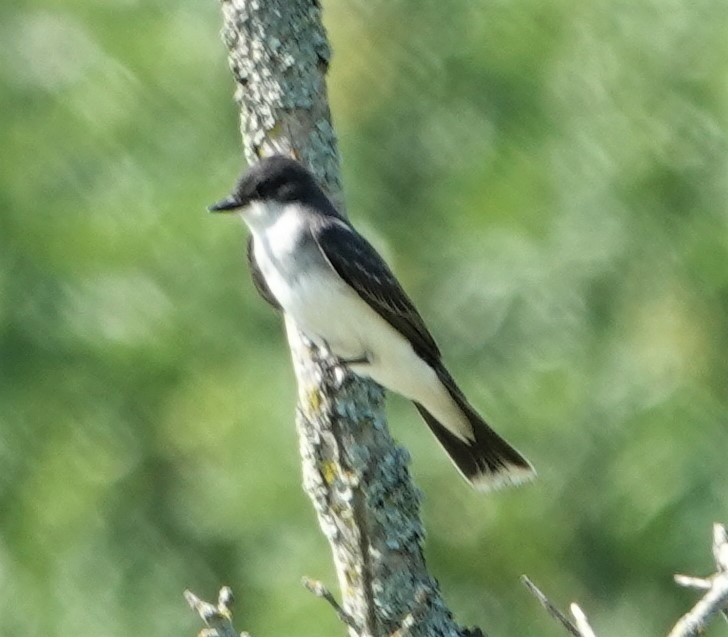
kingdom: Animalia
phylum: Chordata
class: Aves
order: Passeriformes
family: Tyrannidae
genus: Tyrannus
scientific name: Tyrannus tyrannus
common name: Eastern kingbird
